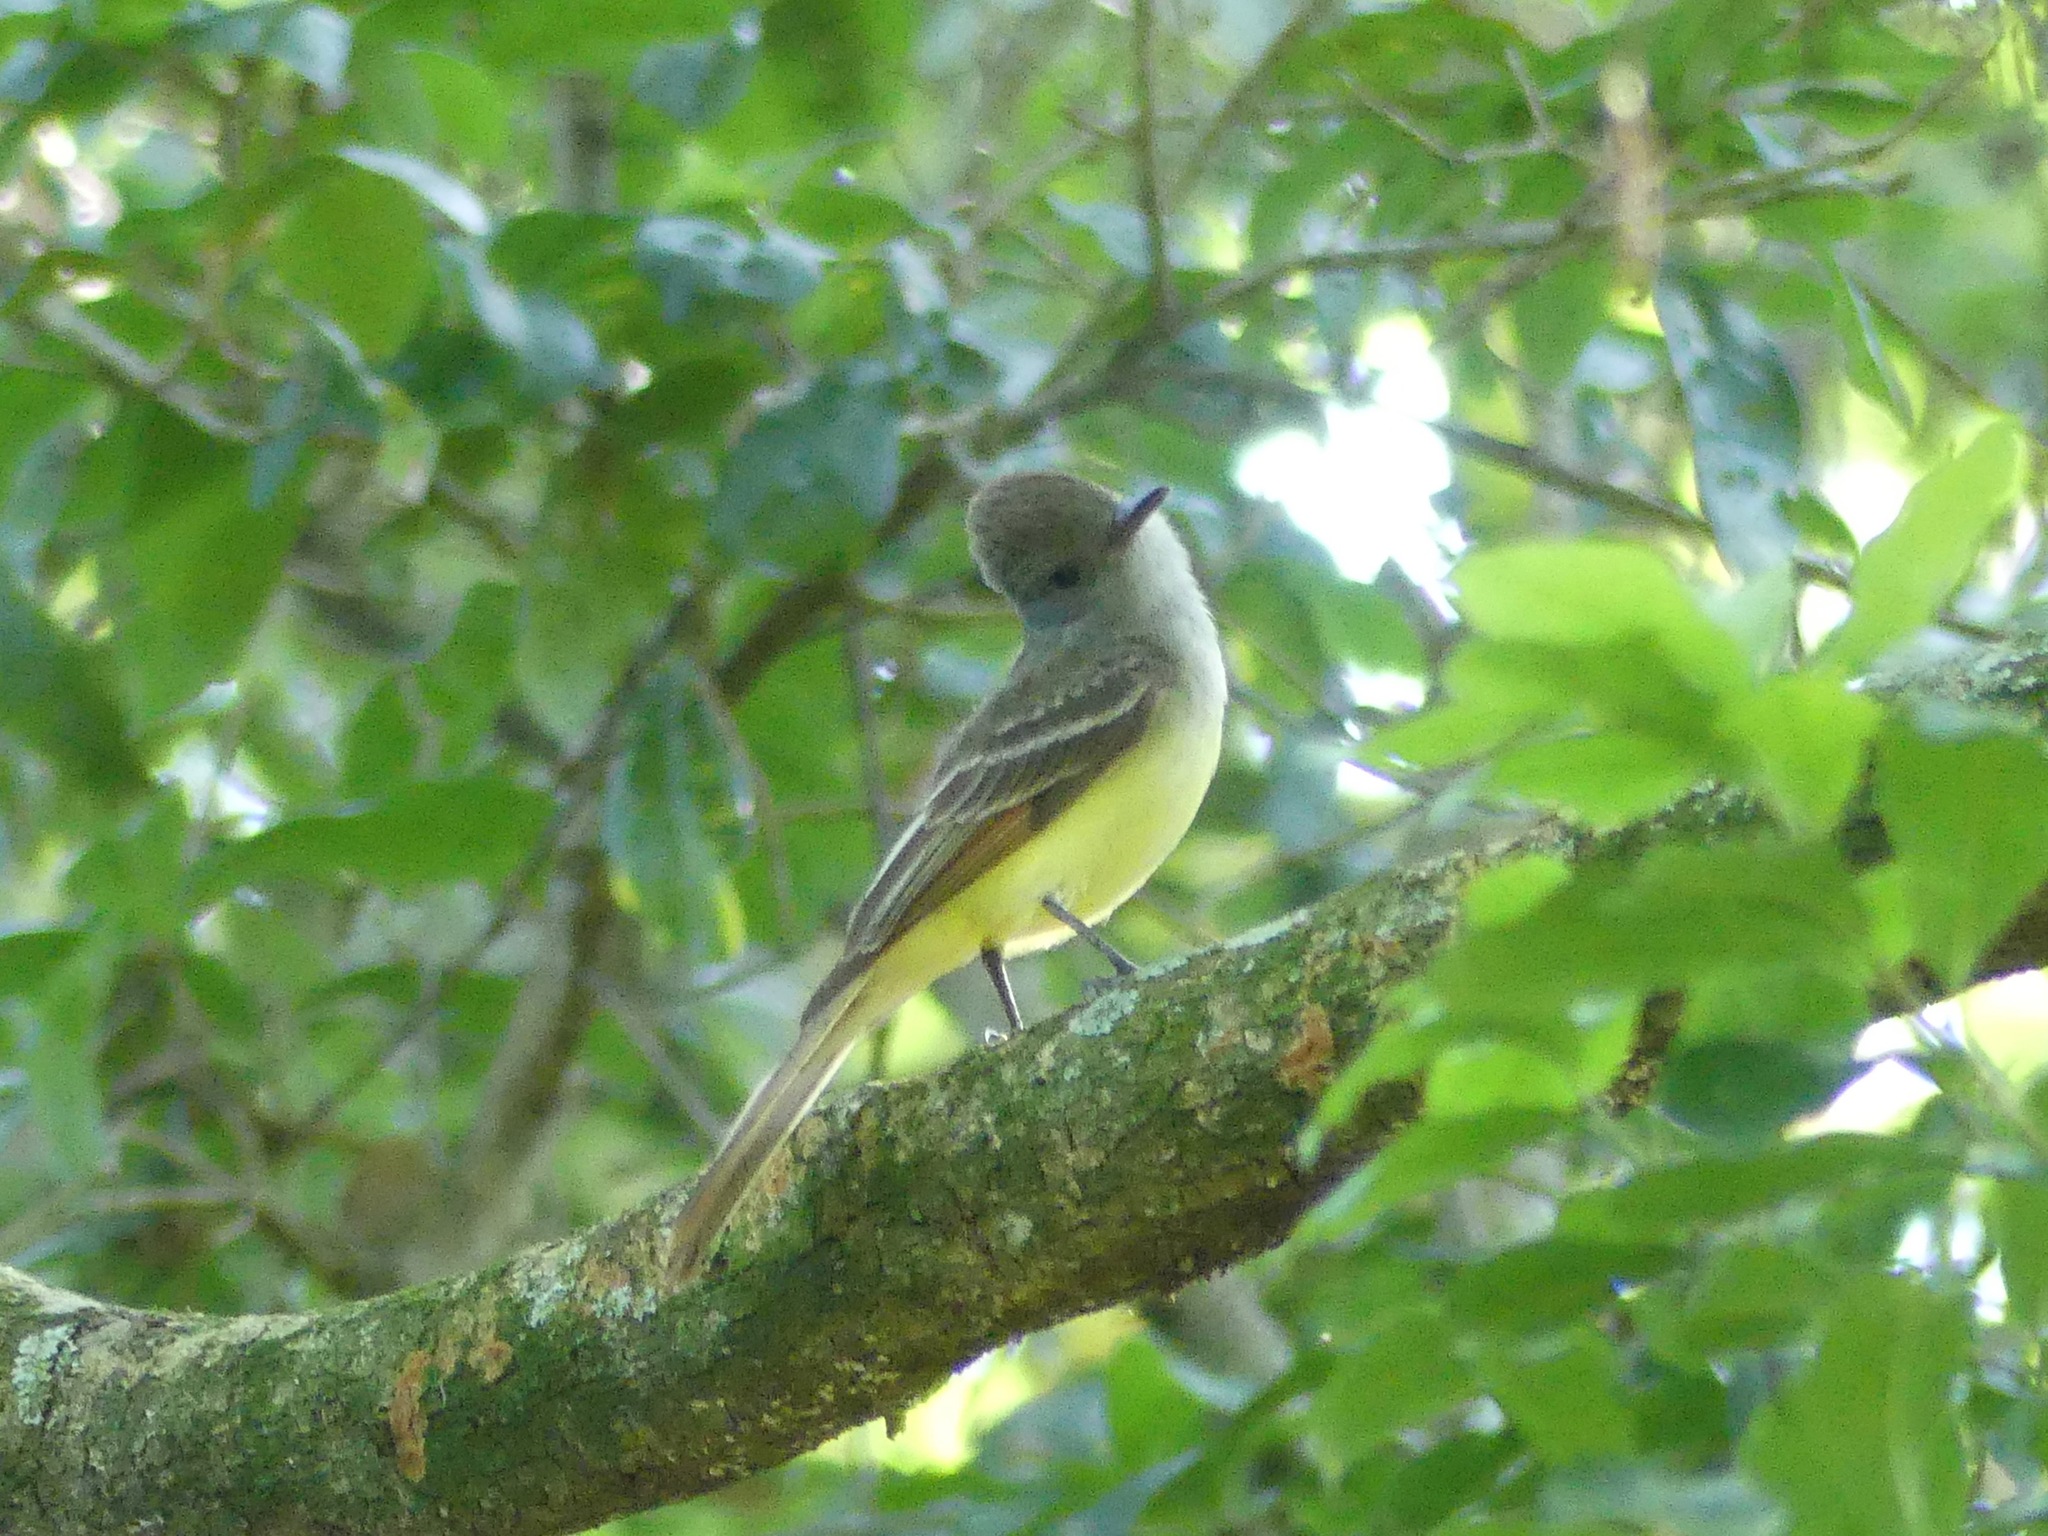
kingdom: Animalia
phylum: Chordata
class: Aves
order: Passeriformes
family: Tyrannidae
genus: Myiarchus
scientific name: Myiarchus crinitus
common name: Great crested flycatcher
